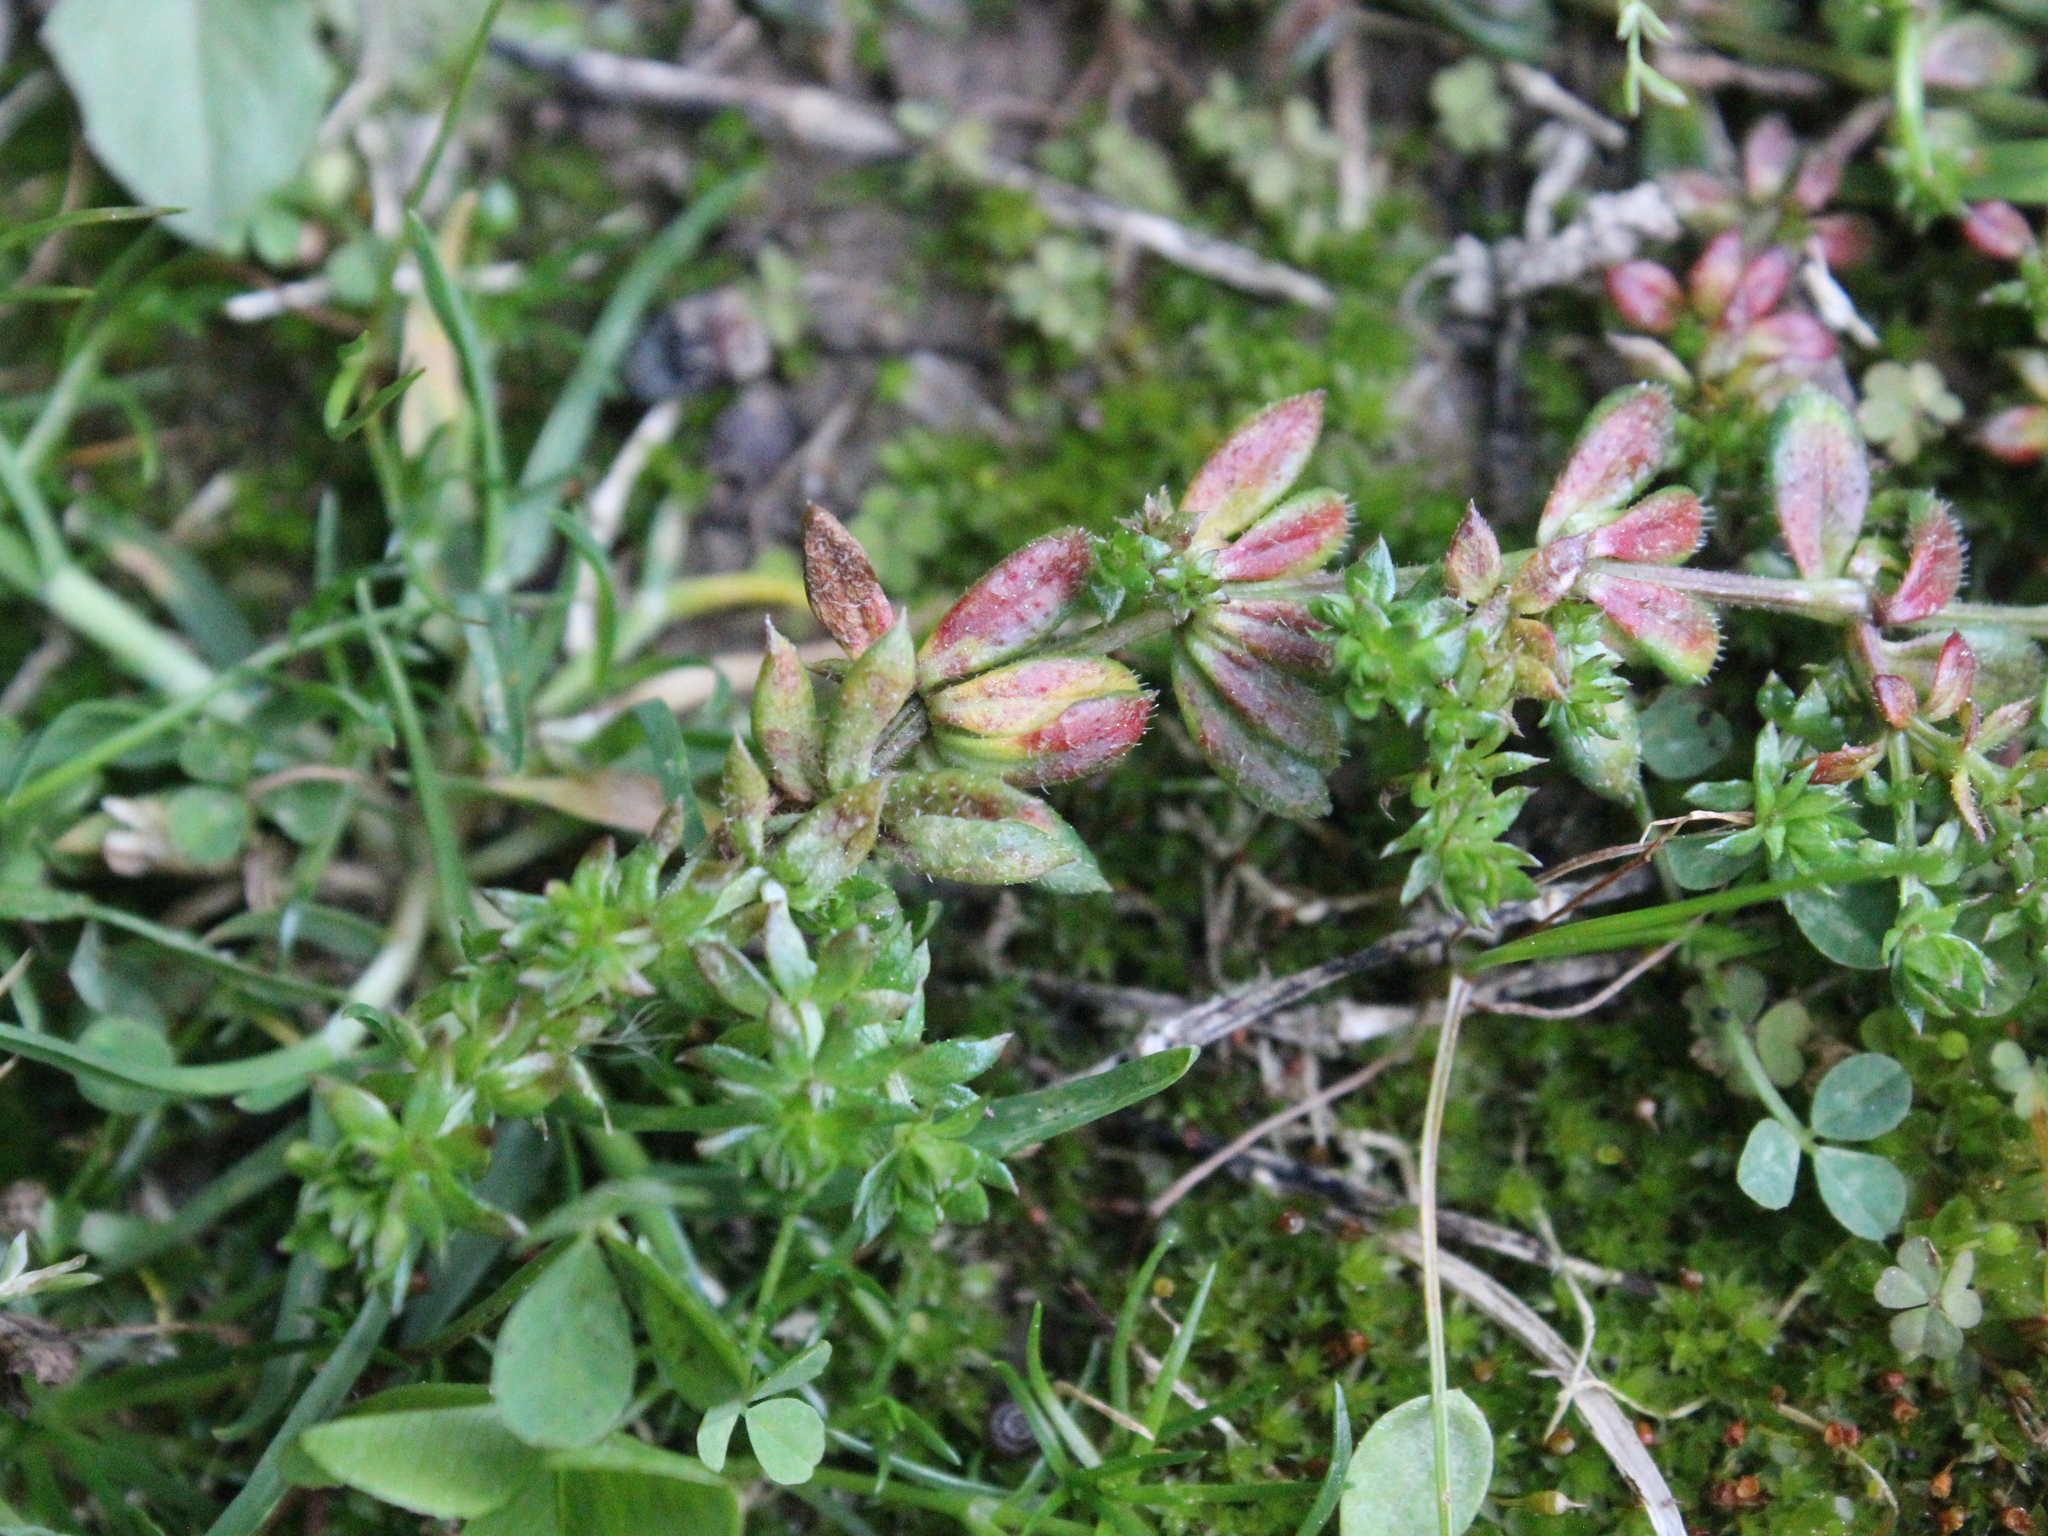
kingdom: Plantae
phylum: Tracheophyta
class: Magnoliopsida
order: Gentianales
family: Rubiaceae
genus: Sherardia
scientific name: Sherardia arvensis
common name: Field madder
